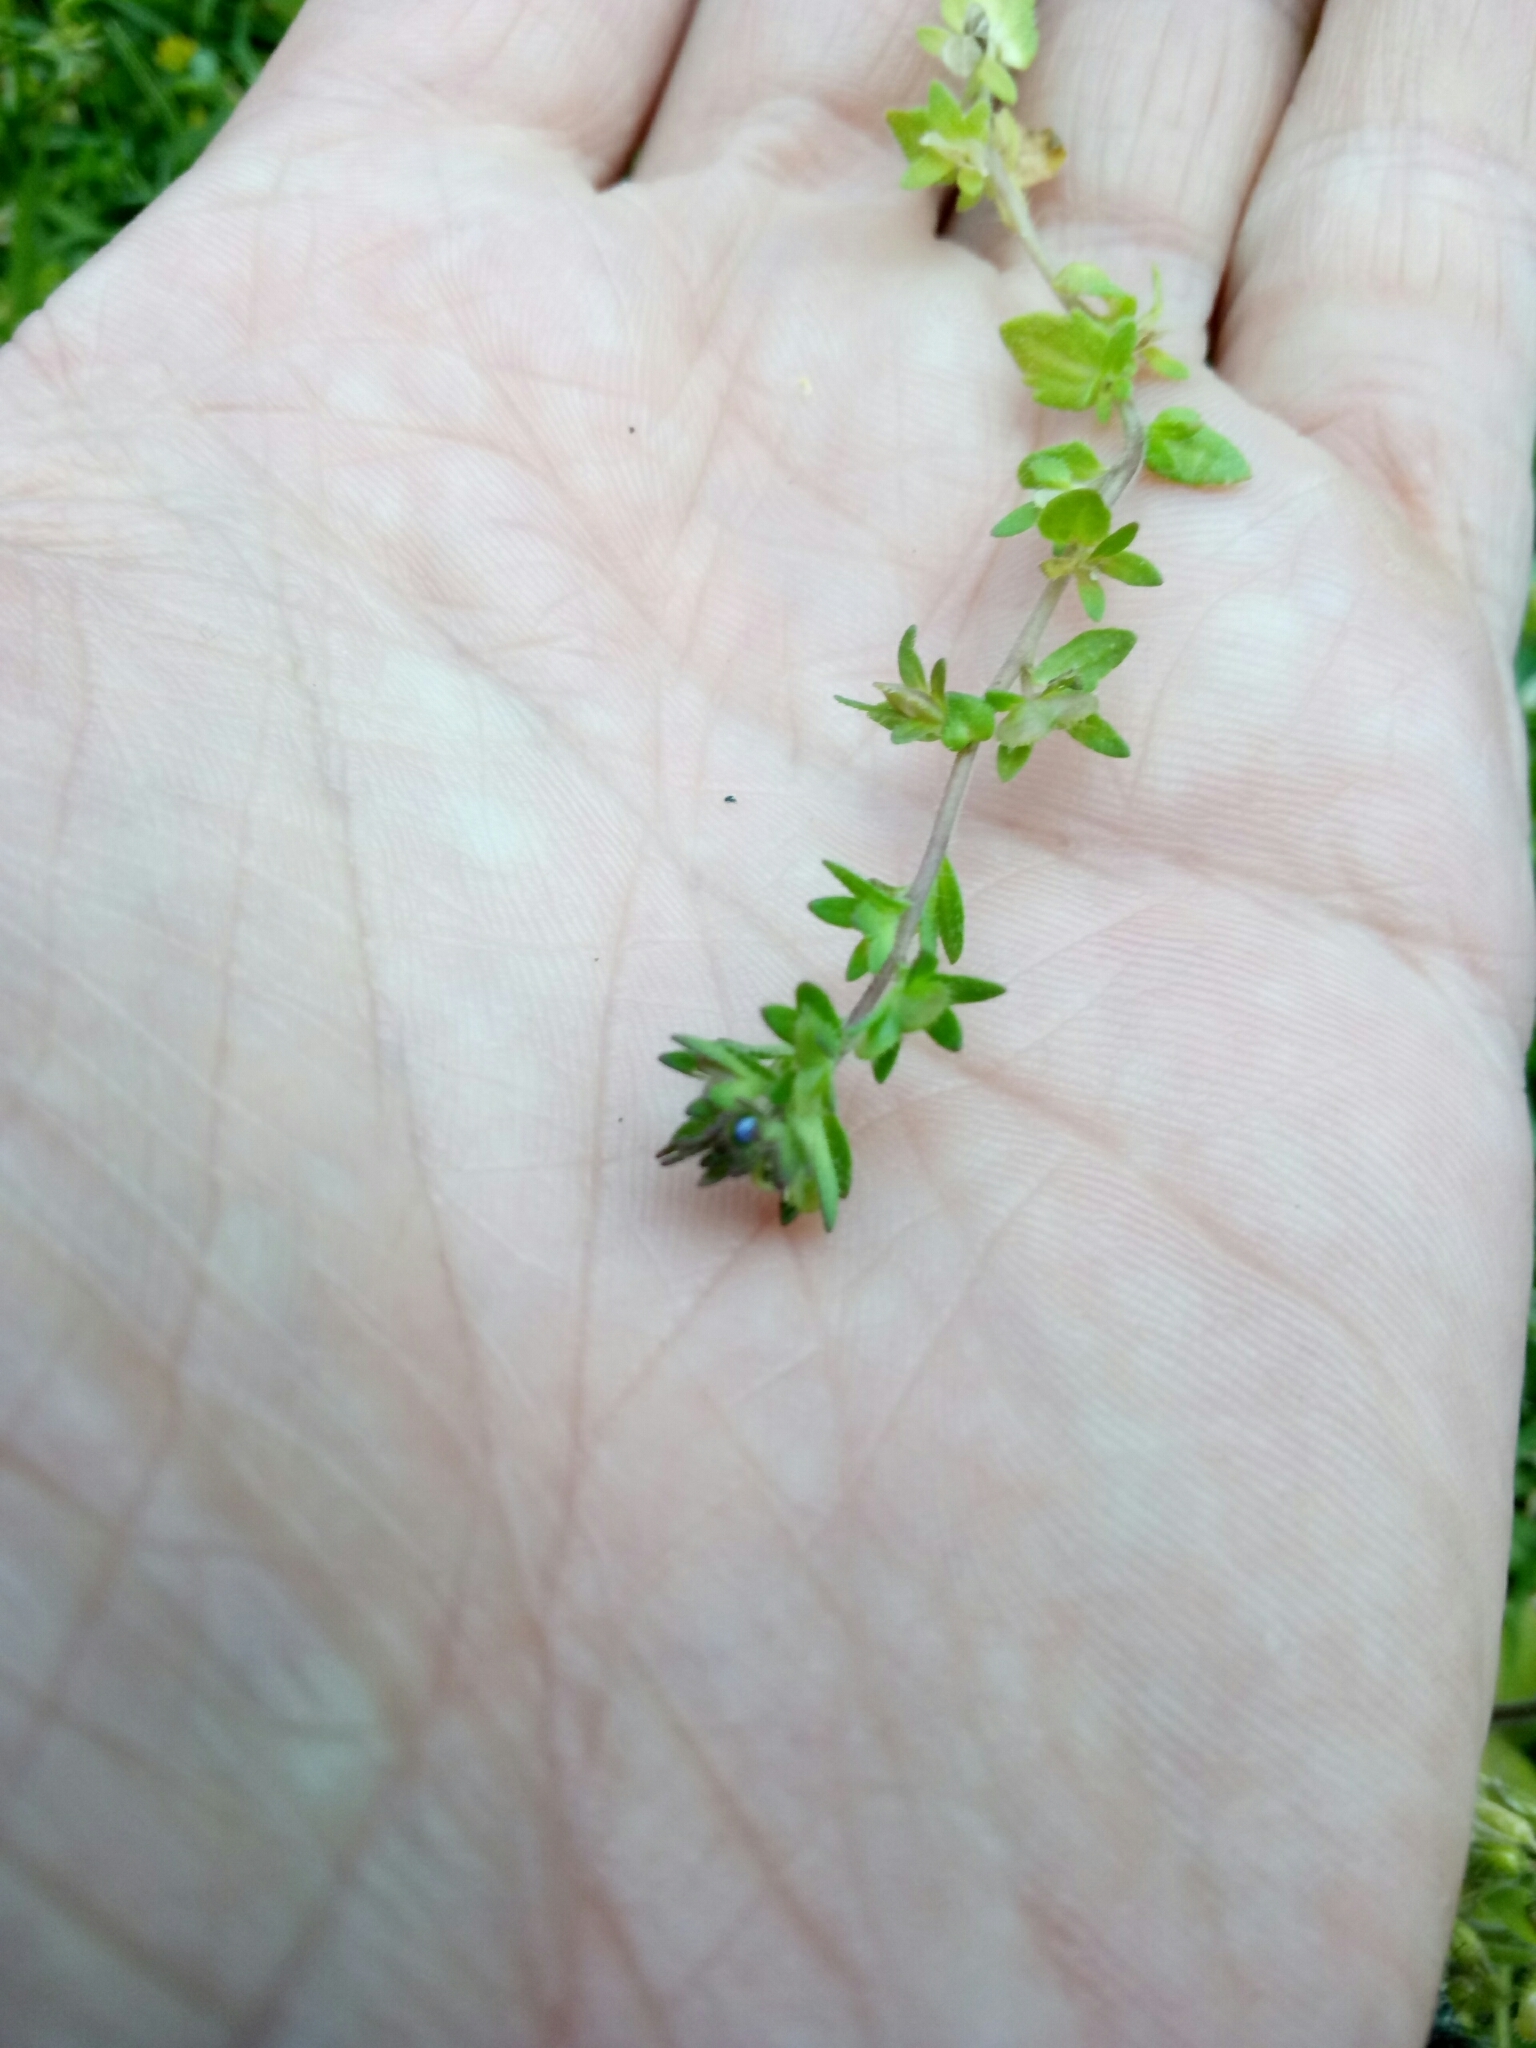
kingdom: Plantae
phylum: Tracheophyta
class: Magnoliopsida
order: Lamiales
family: Plantaginaceae
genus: Veronica
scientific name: Veronica arvensis
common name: Corn speedwell
